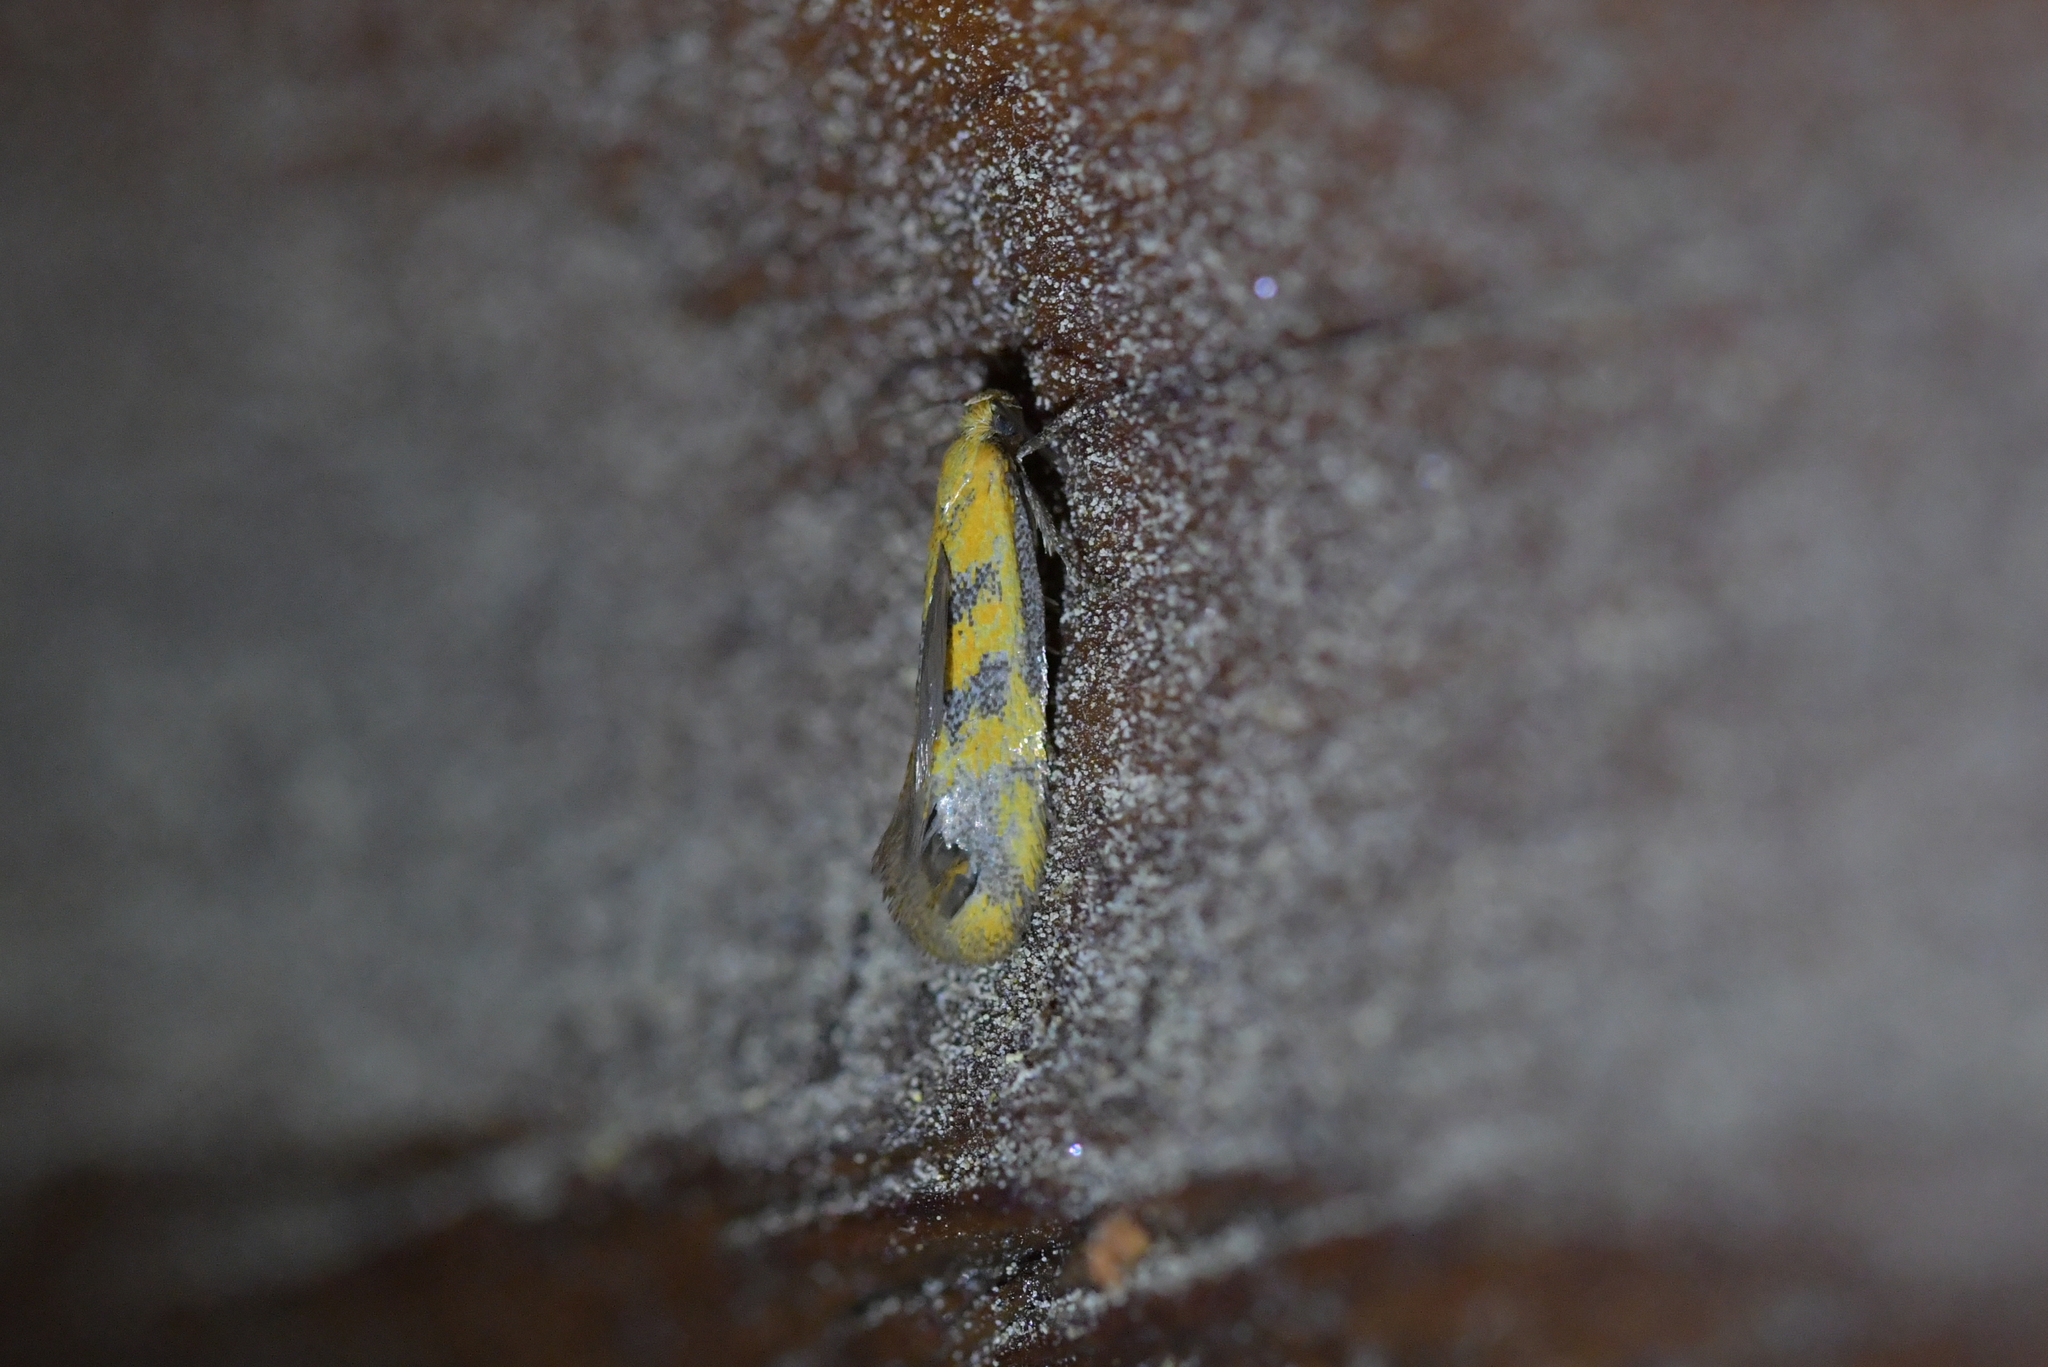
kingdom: Animalia
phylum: Arthropoda
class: Insecta
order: Lepidoptera
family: Oecophoridae
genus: Tingena
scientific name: Tingena hoplodesma
